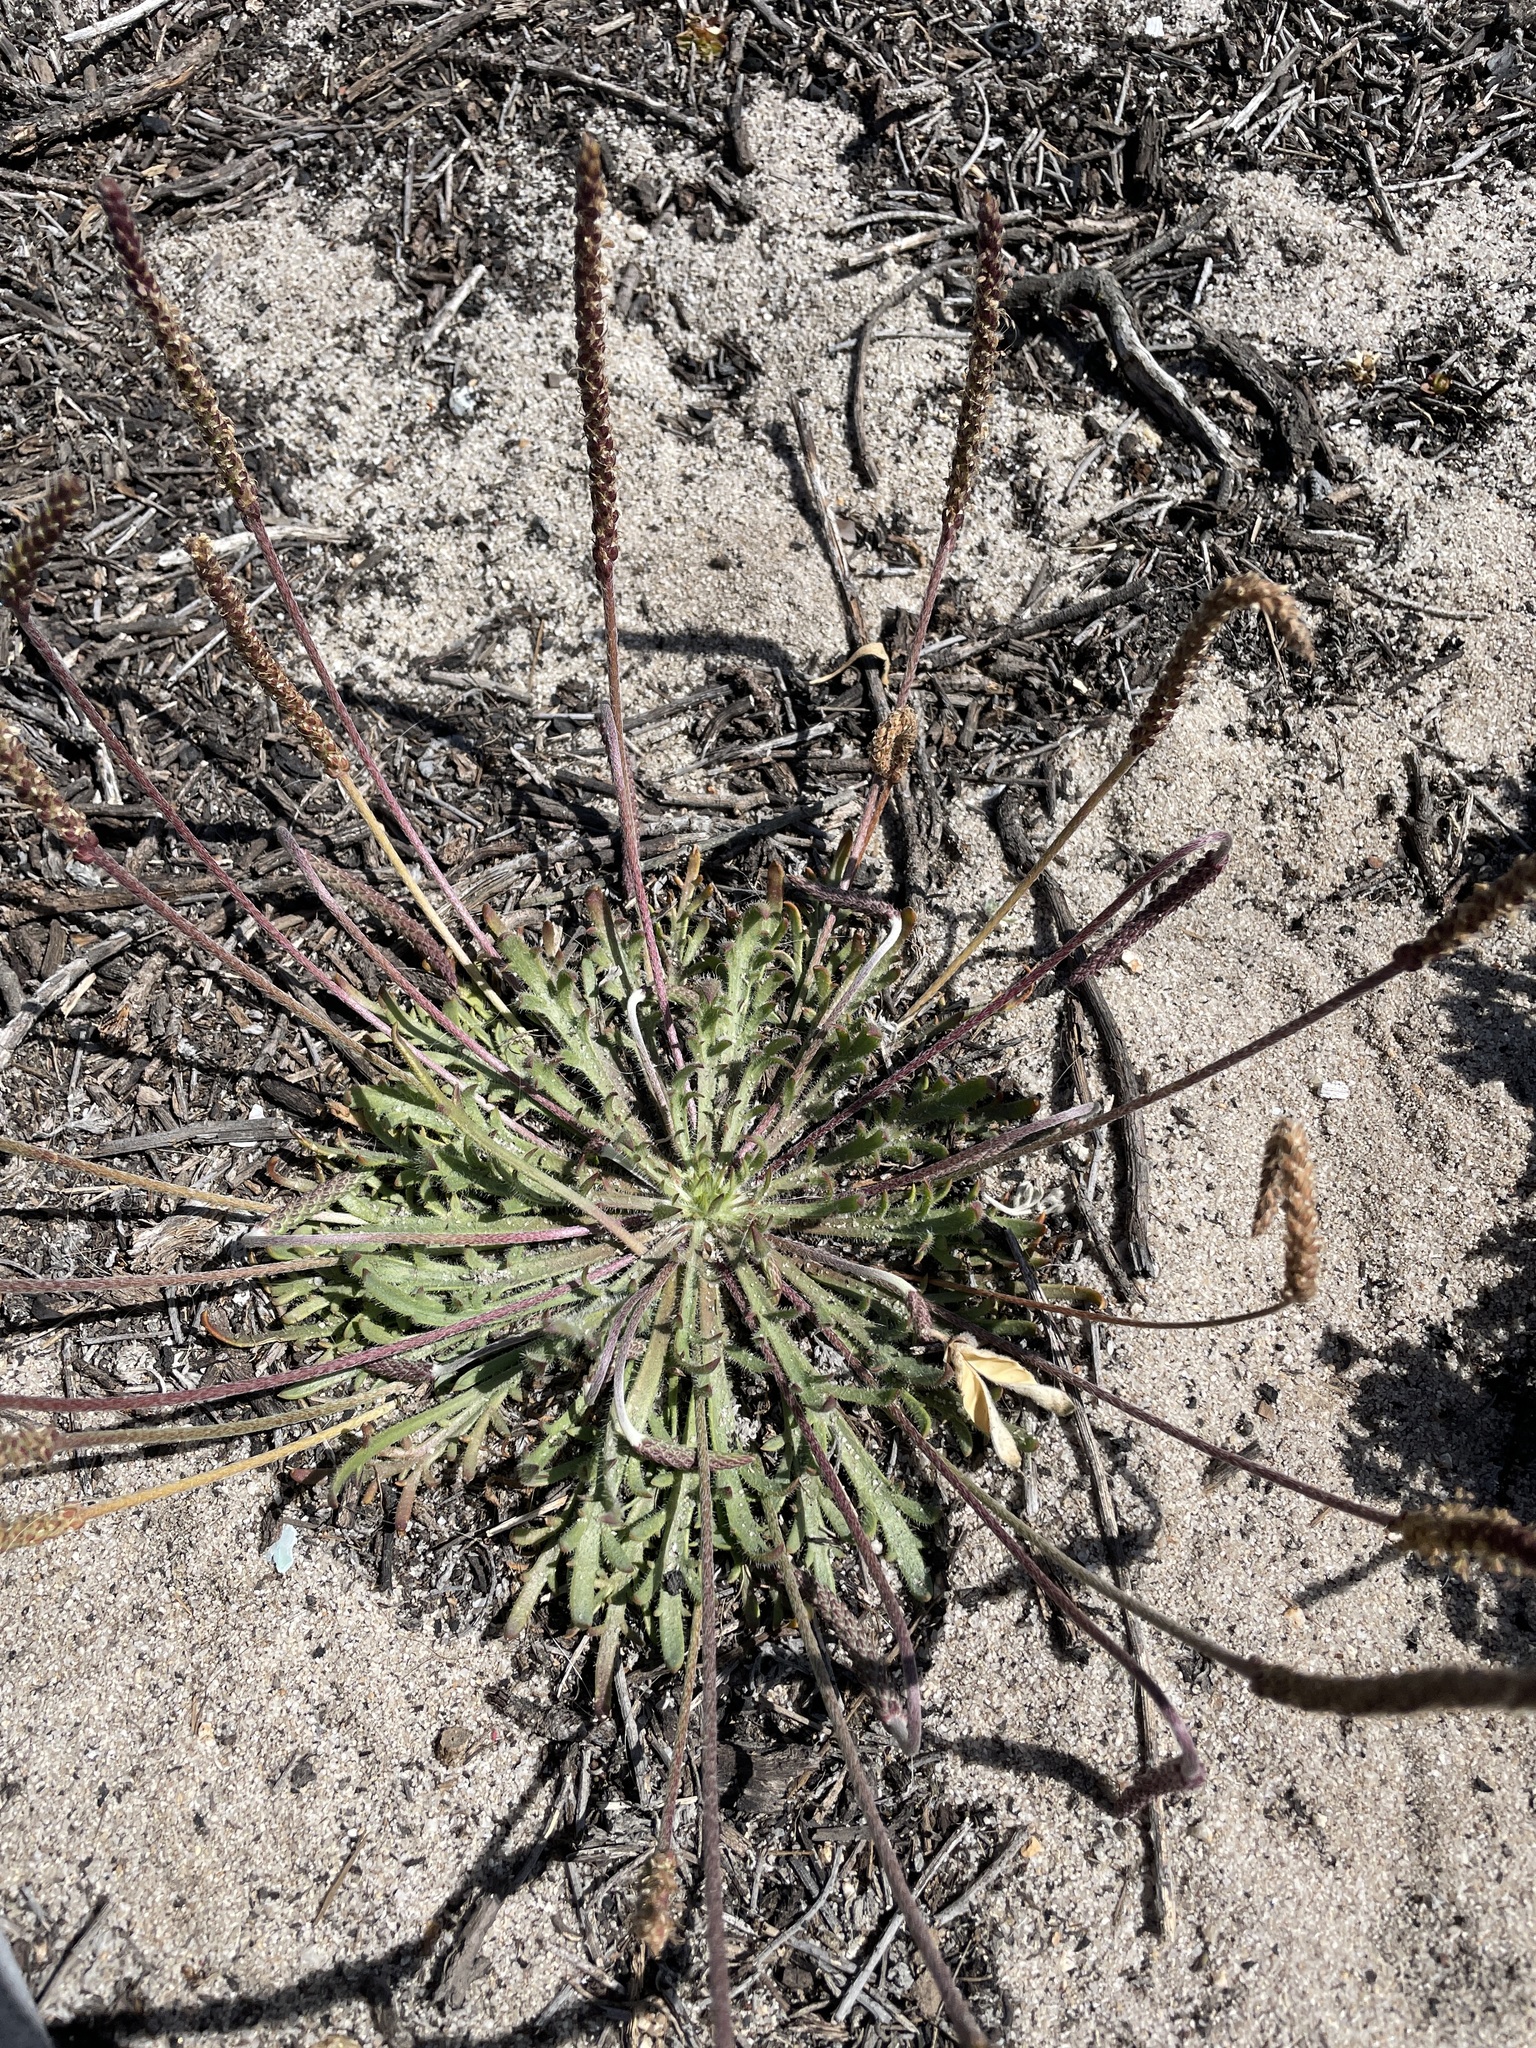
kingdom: Plantae
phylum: Tracheophyta
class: Magnoliopsida
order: Lamiales
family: Plantaginaceae
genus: Plantago
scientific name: Plantago coronopus
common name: Buck's-horn plantain
